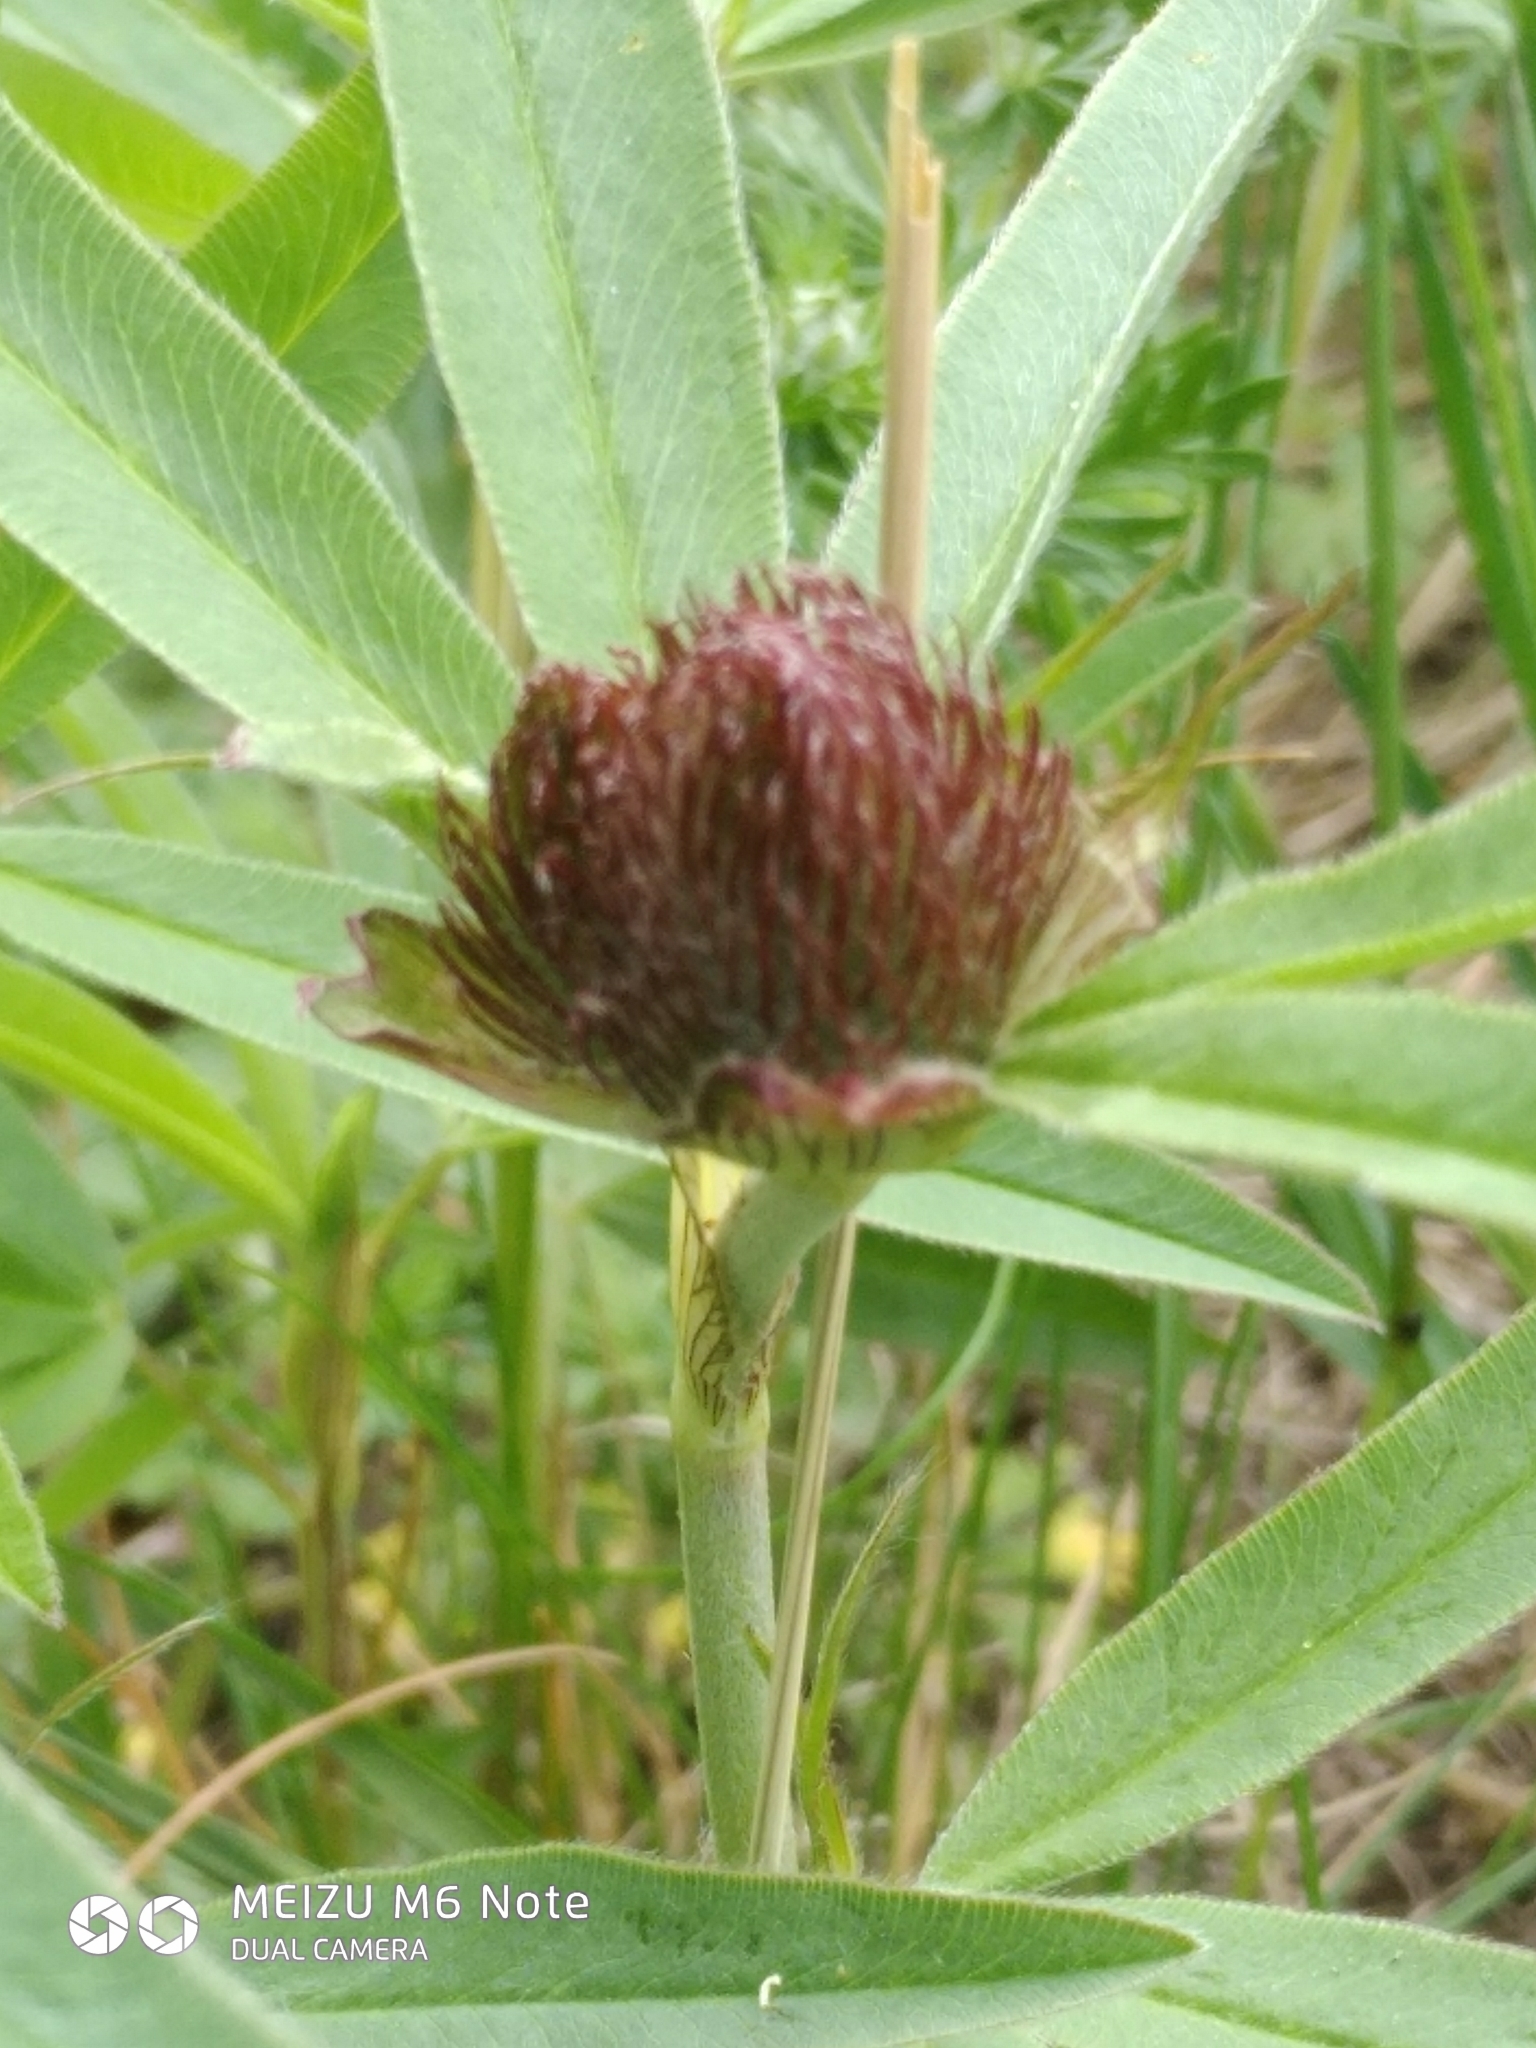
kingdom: Plantae
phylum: Tracheophyta
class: Magnoliopsida
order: Fabales
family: Fabaceae
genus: Trifolium
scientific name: Trifolium alpestre
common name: Owl-head clover
